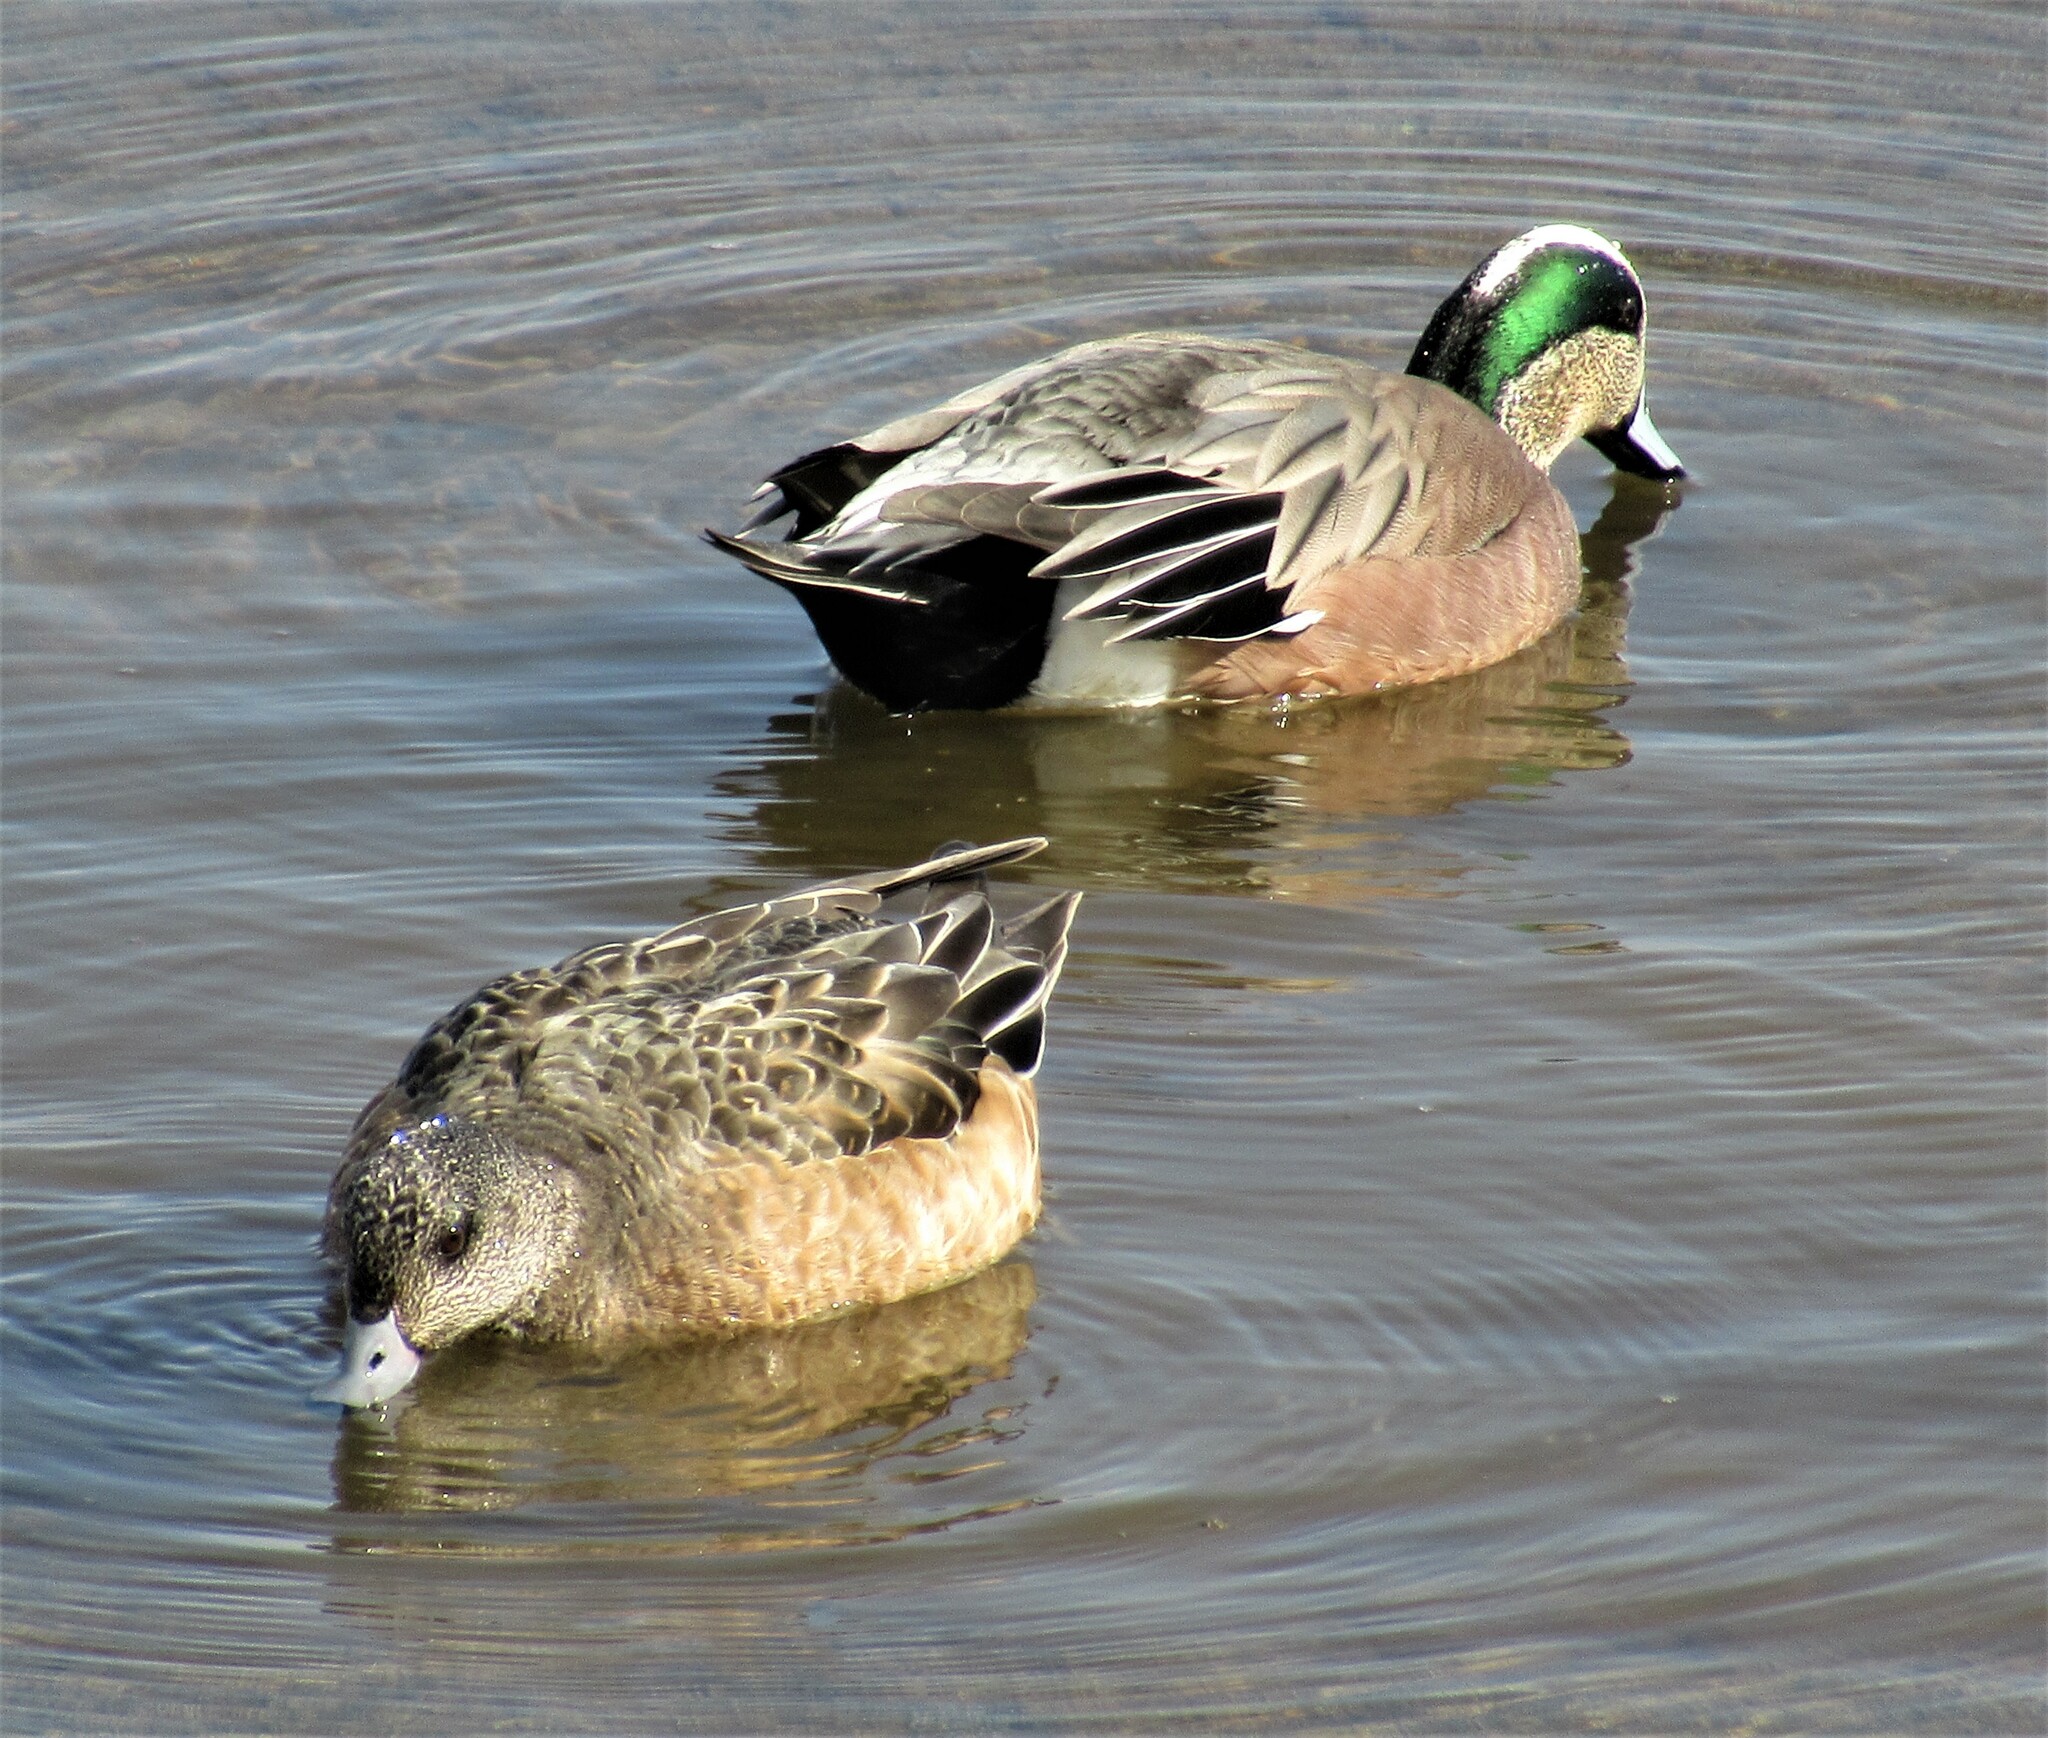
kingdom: Animalia
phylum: Chordata
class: Aves
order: Anseriformes
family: Anatidae
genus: Mareca
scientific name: Mareca americana
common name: American wigeon
